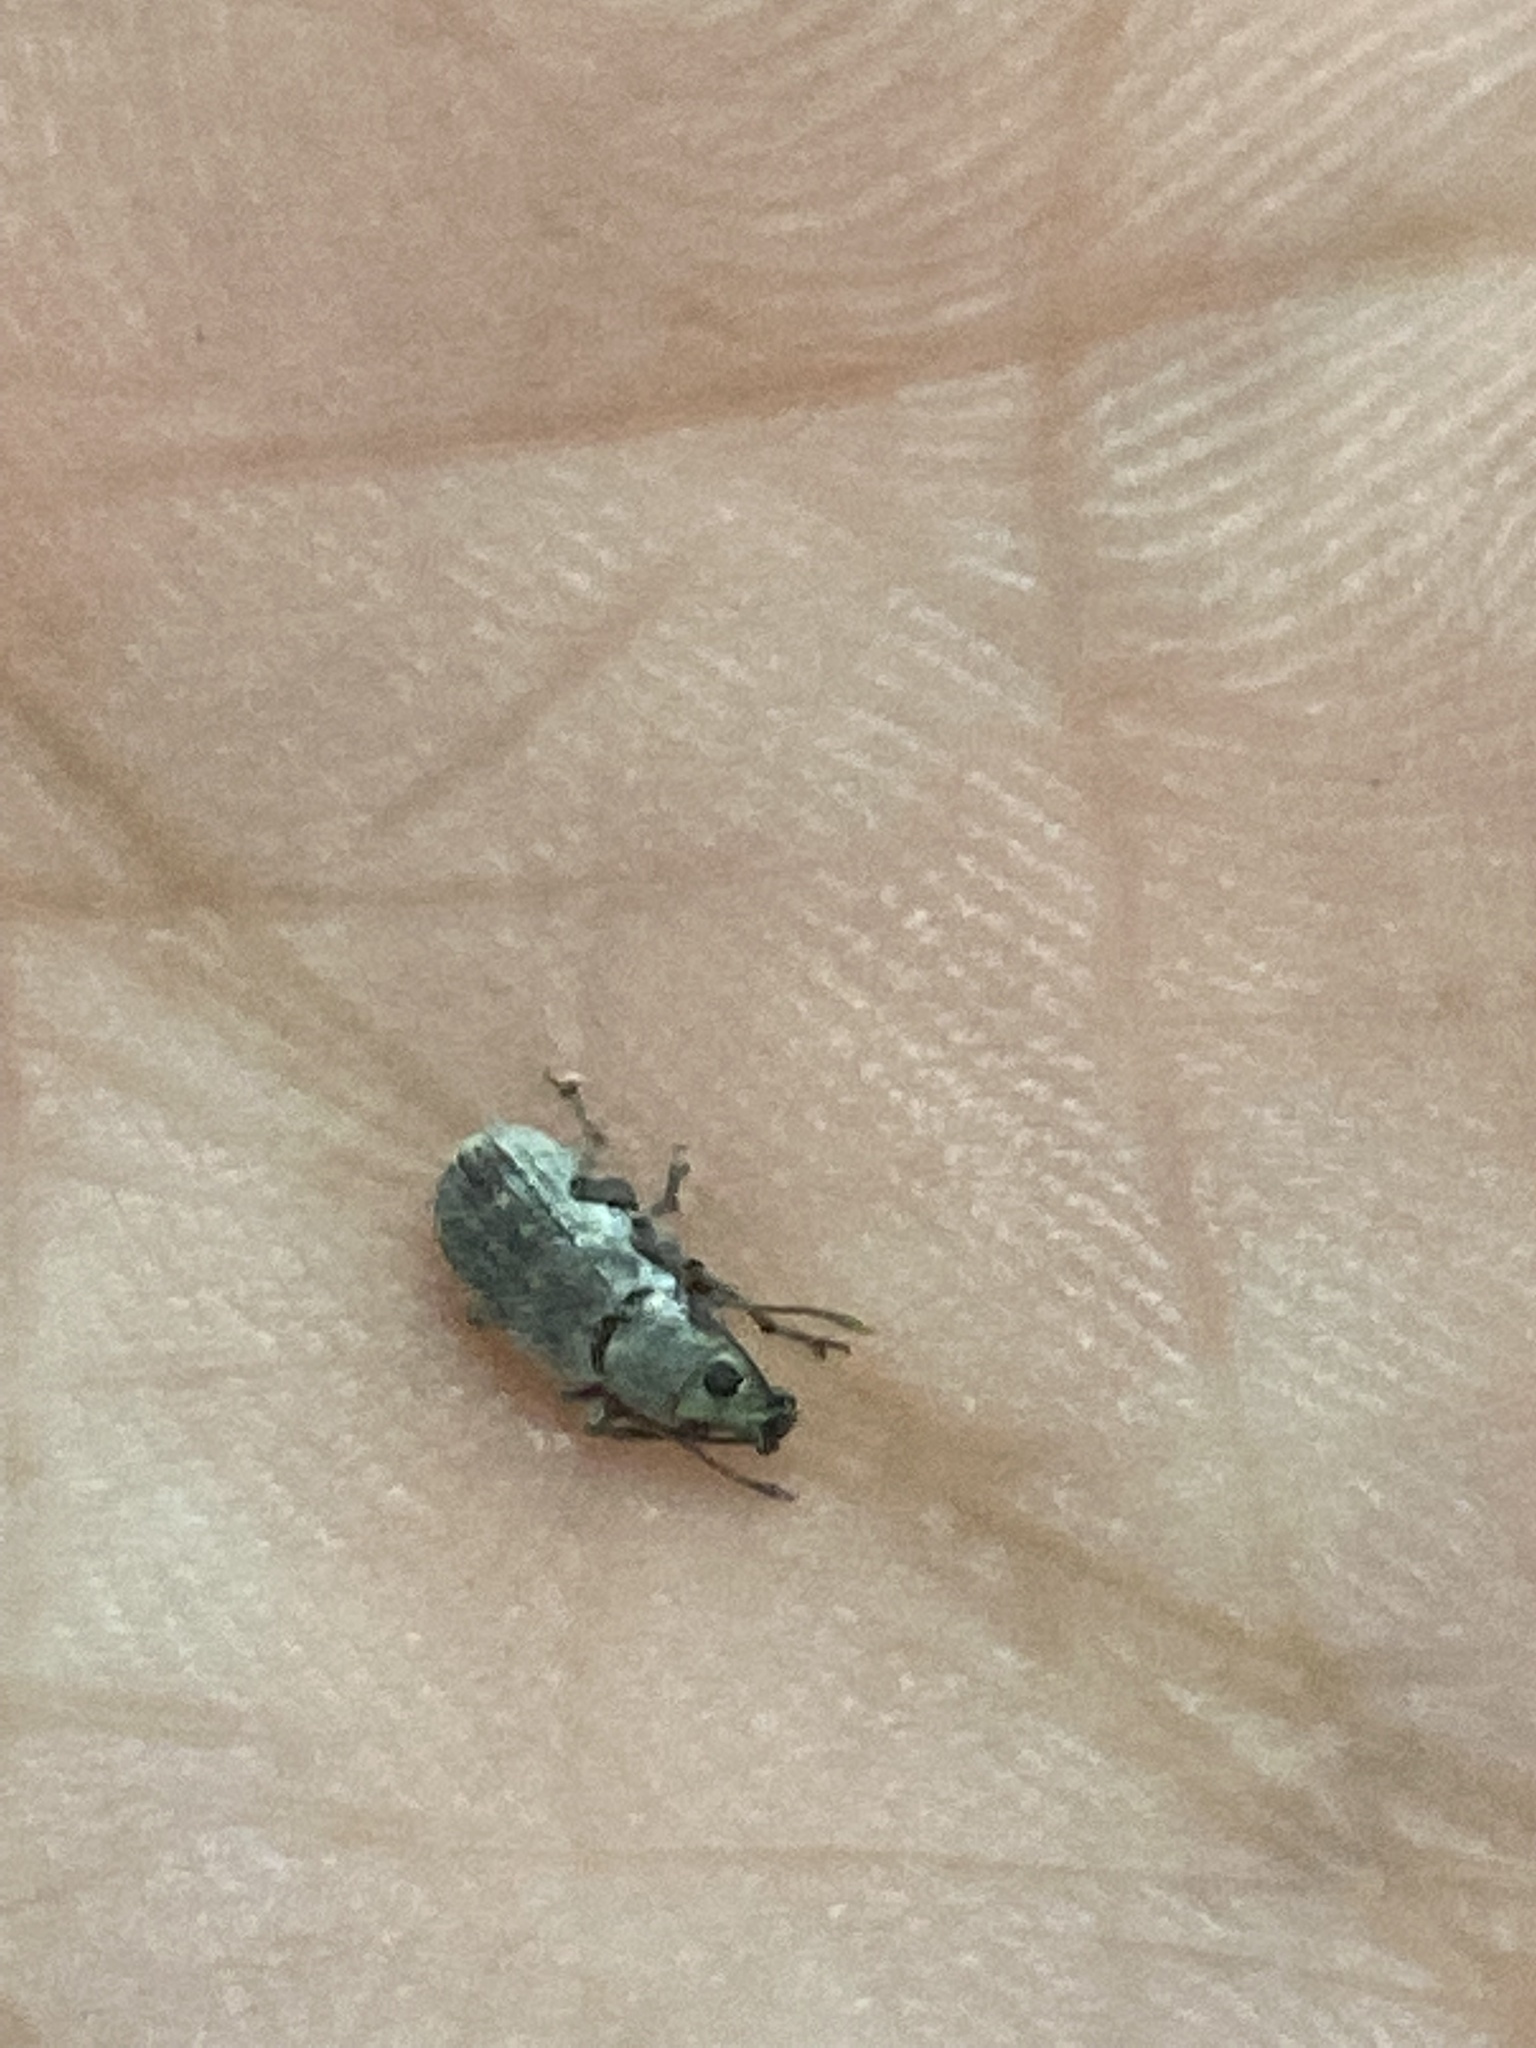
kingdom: Animalia
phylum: Arthropoda
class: Insecta
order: Coleoptera
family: Curculionidae
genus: Cyrtepistomus
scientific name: Cyrtepistomus castaneus
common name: Weevil
